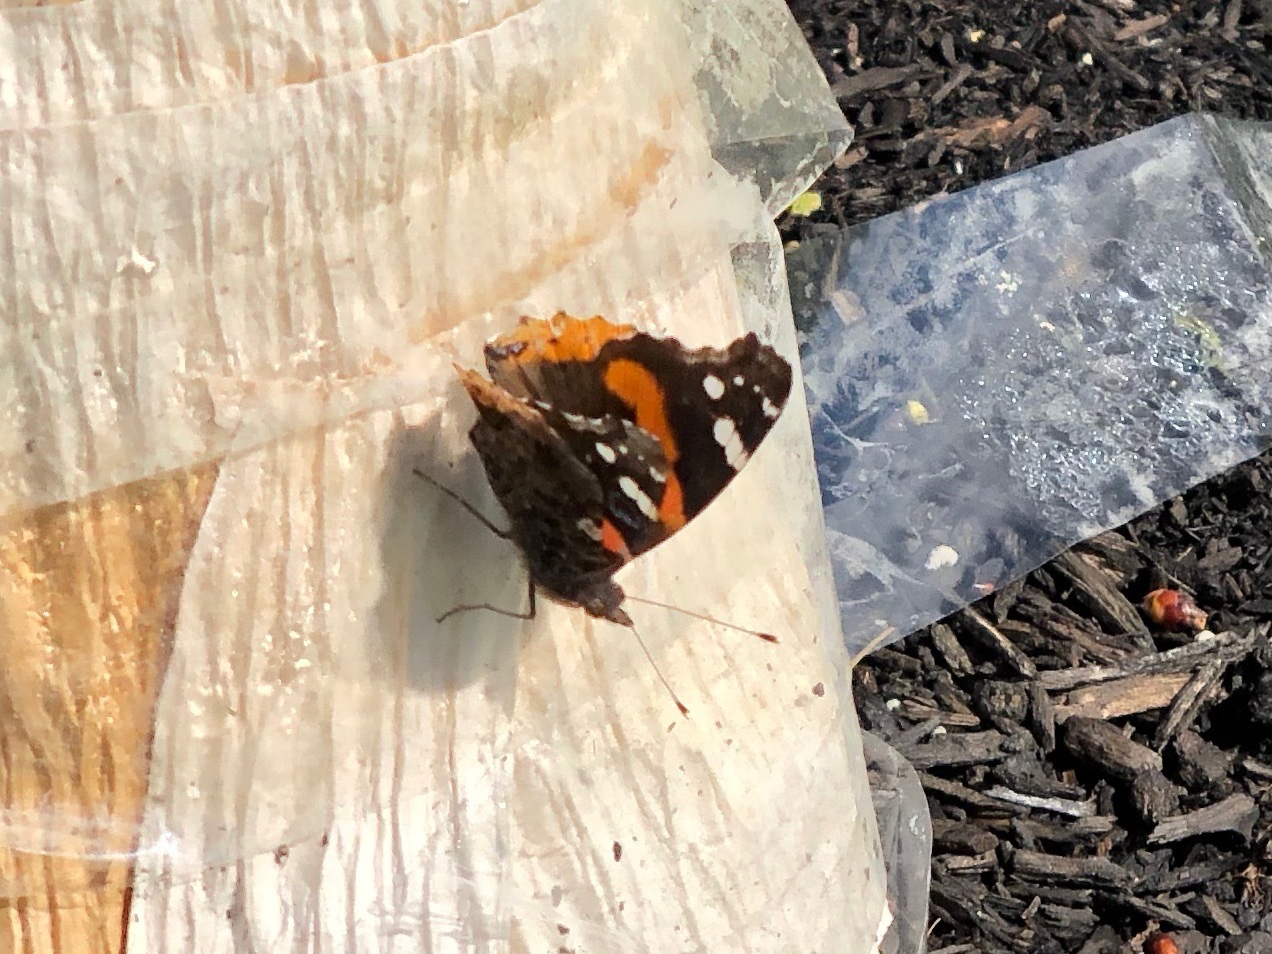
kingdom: Animalia
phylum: Arthropoda
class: Insecta
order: Lepidoptera
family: Nymphalidae
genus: Vanessa
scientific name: Vanessa atalanta
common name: Red admiral
